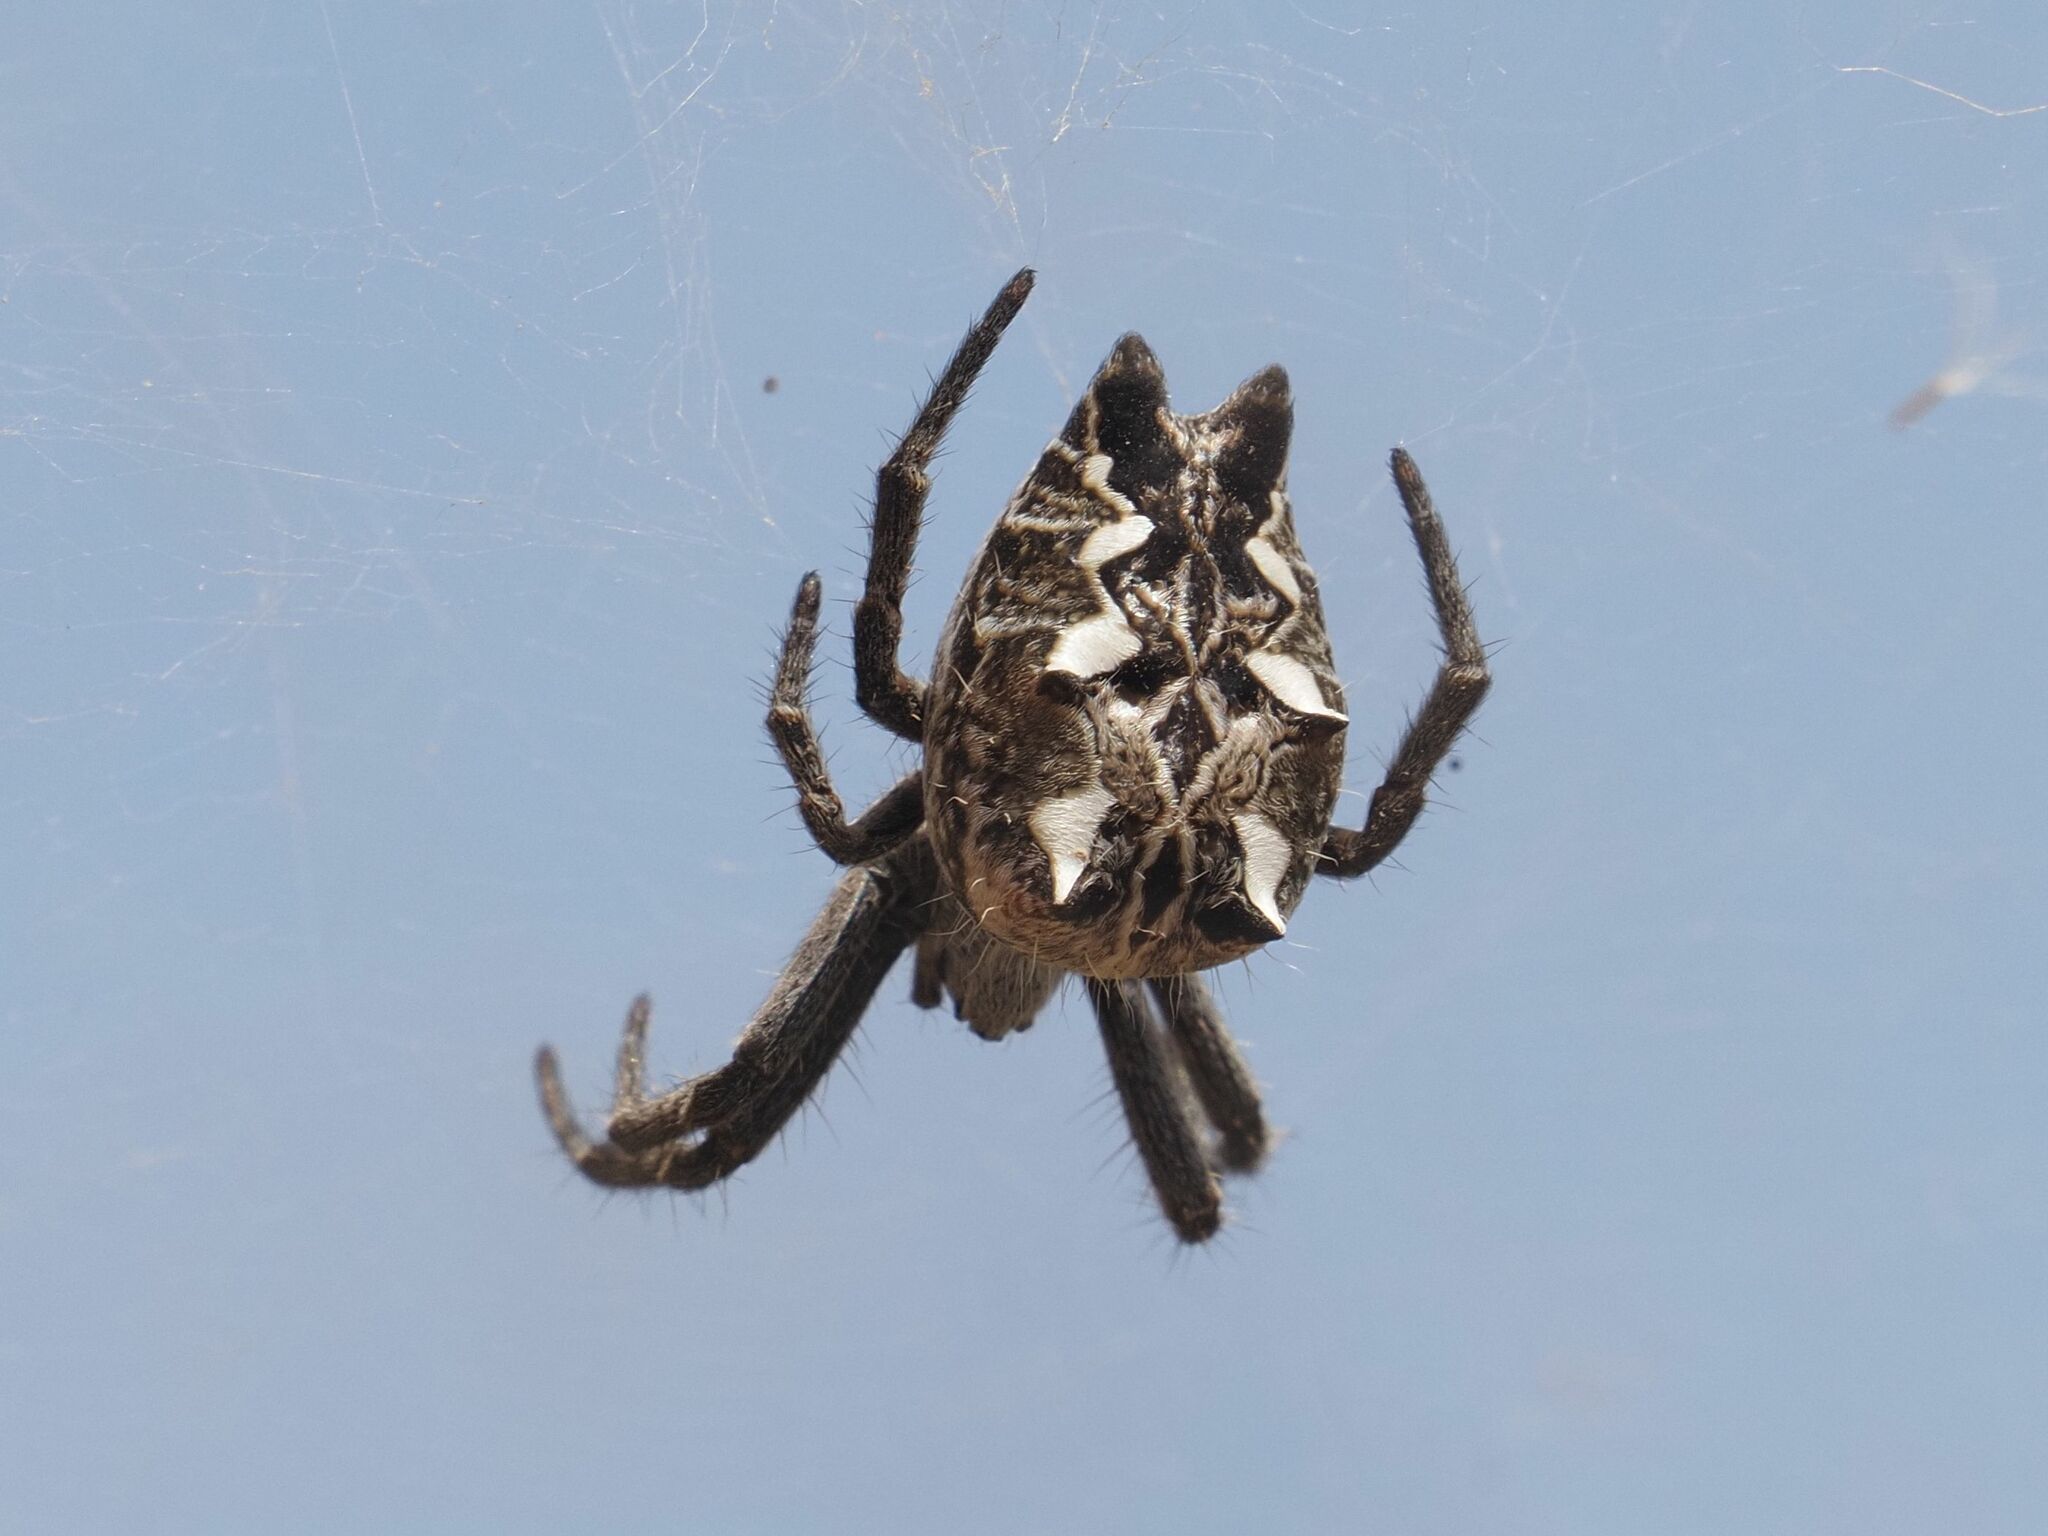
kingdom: Animalia
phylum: Arthropoda
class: Arachnida
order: Araneae
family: Araneidae
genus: Cyrtophora
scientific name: Cyrtophora citricola
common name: Orb weavers
